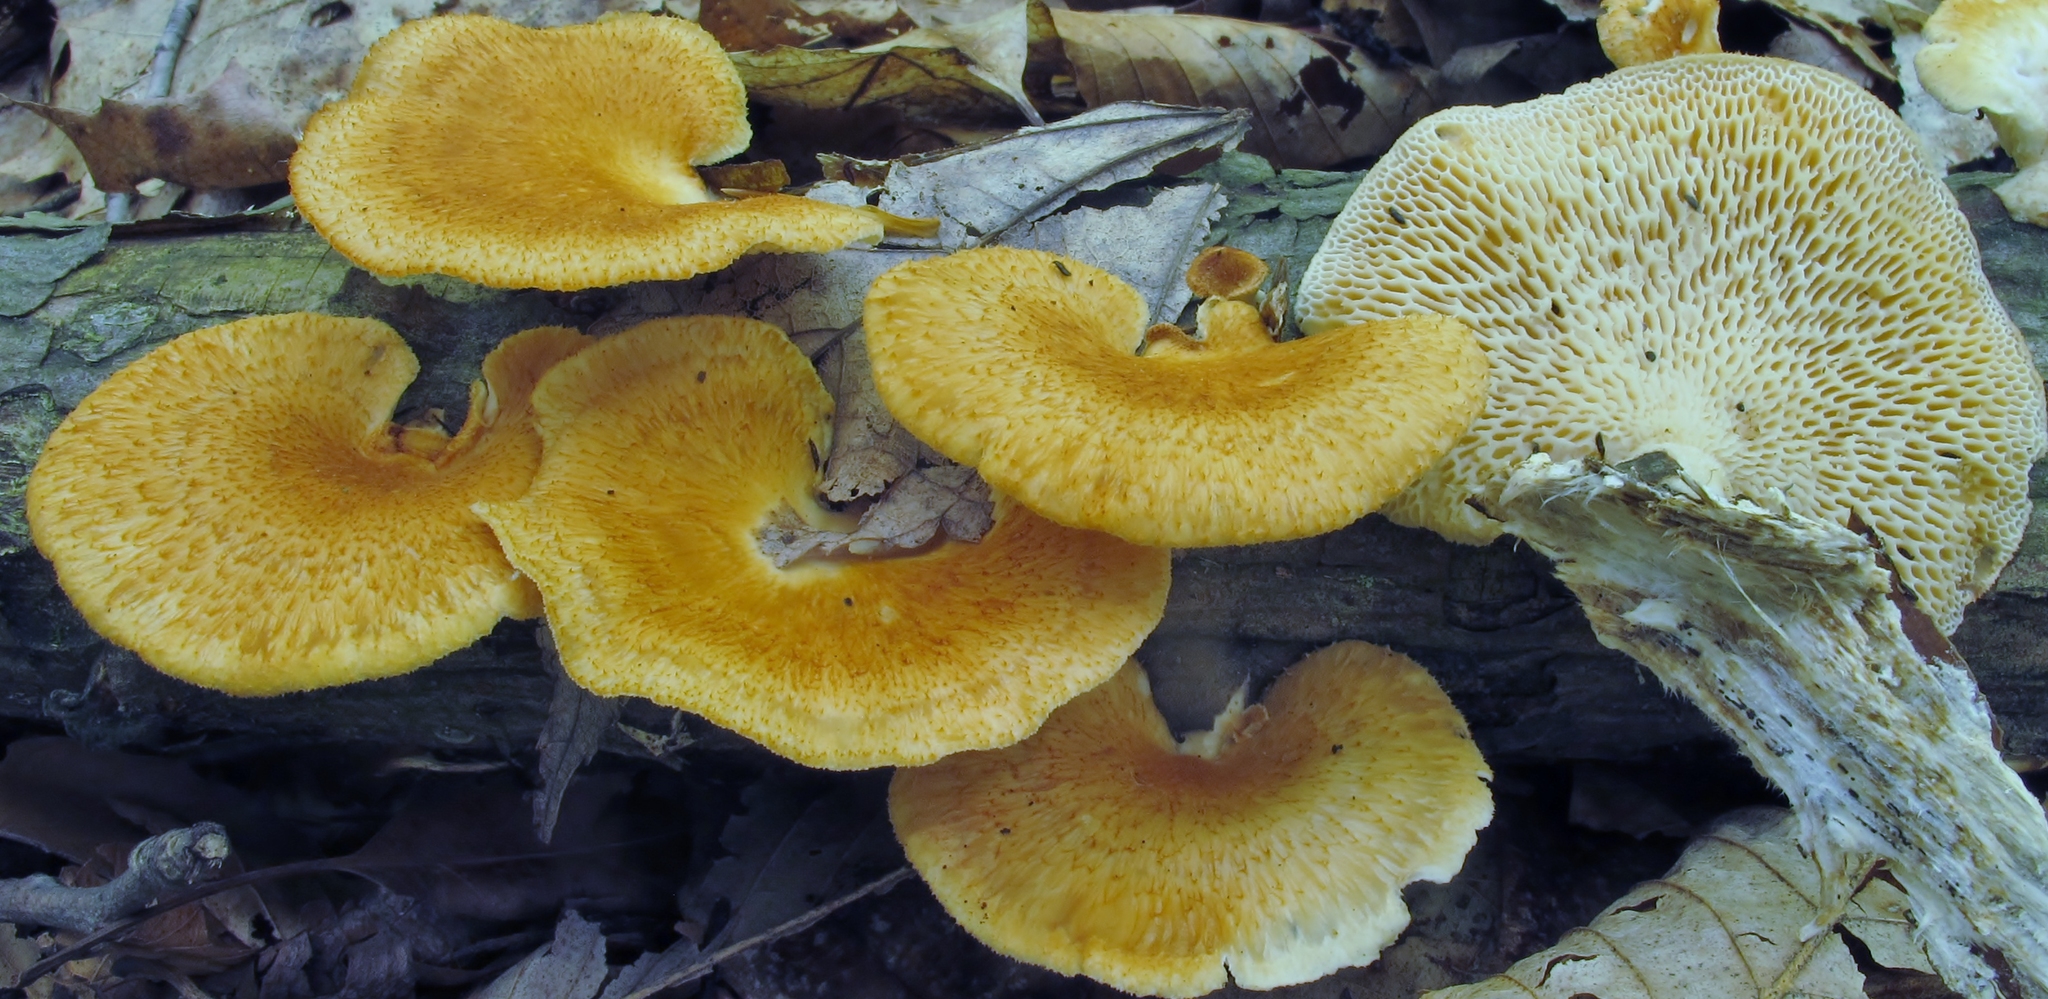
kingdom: Fungi
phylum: Basidiomycota
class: Agaricomycetes
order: Polyporales
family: Polyporaceae
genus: Neofavolus
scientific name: Neofavolus alveolaris
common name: Hexagonal-pored polypore
